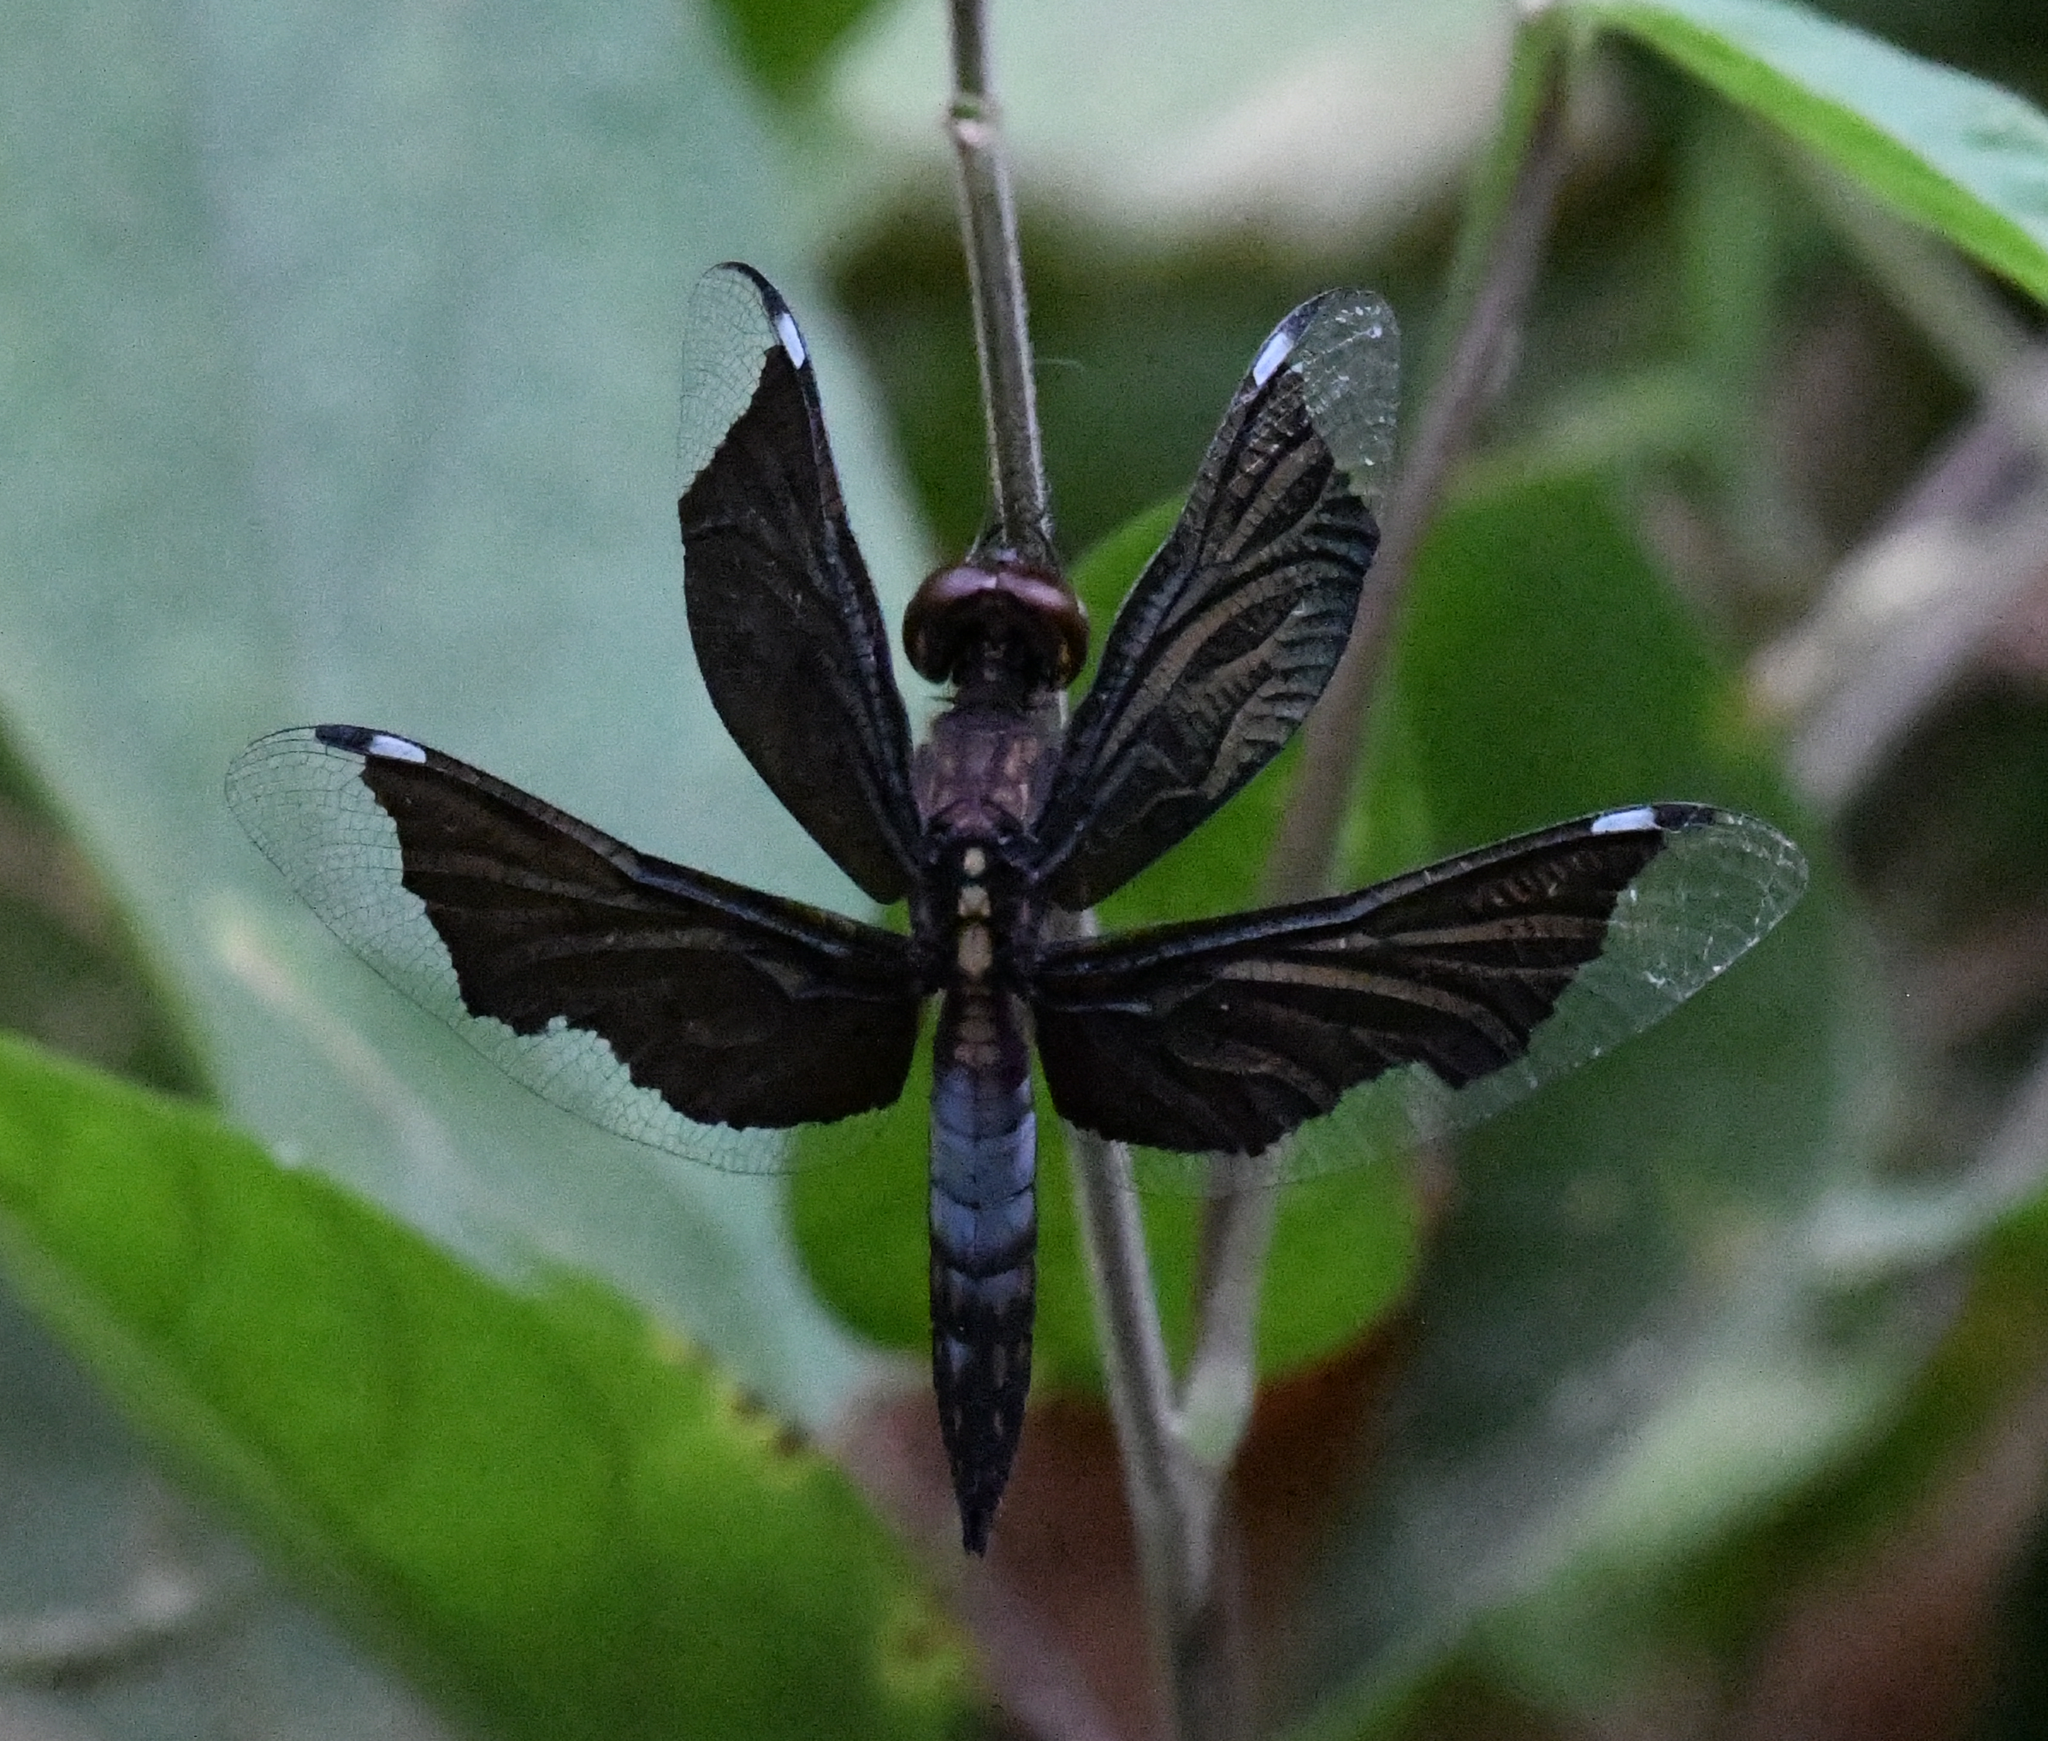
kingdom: Animalia
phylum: Arthropoda
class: Insecta
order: Odonata
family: Libellulidae
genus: Palpopleura
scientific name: Palpopleura lucia
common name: Lucia widow
